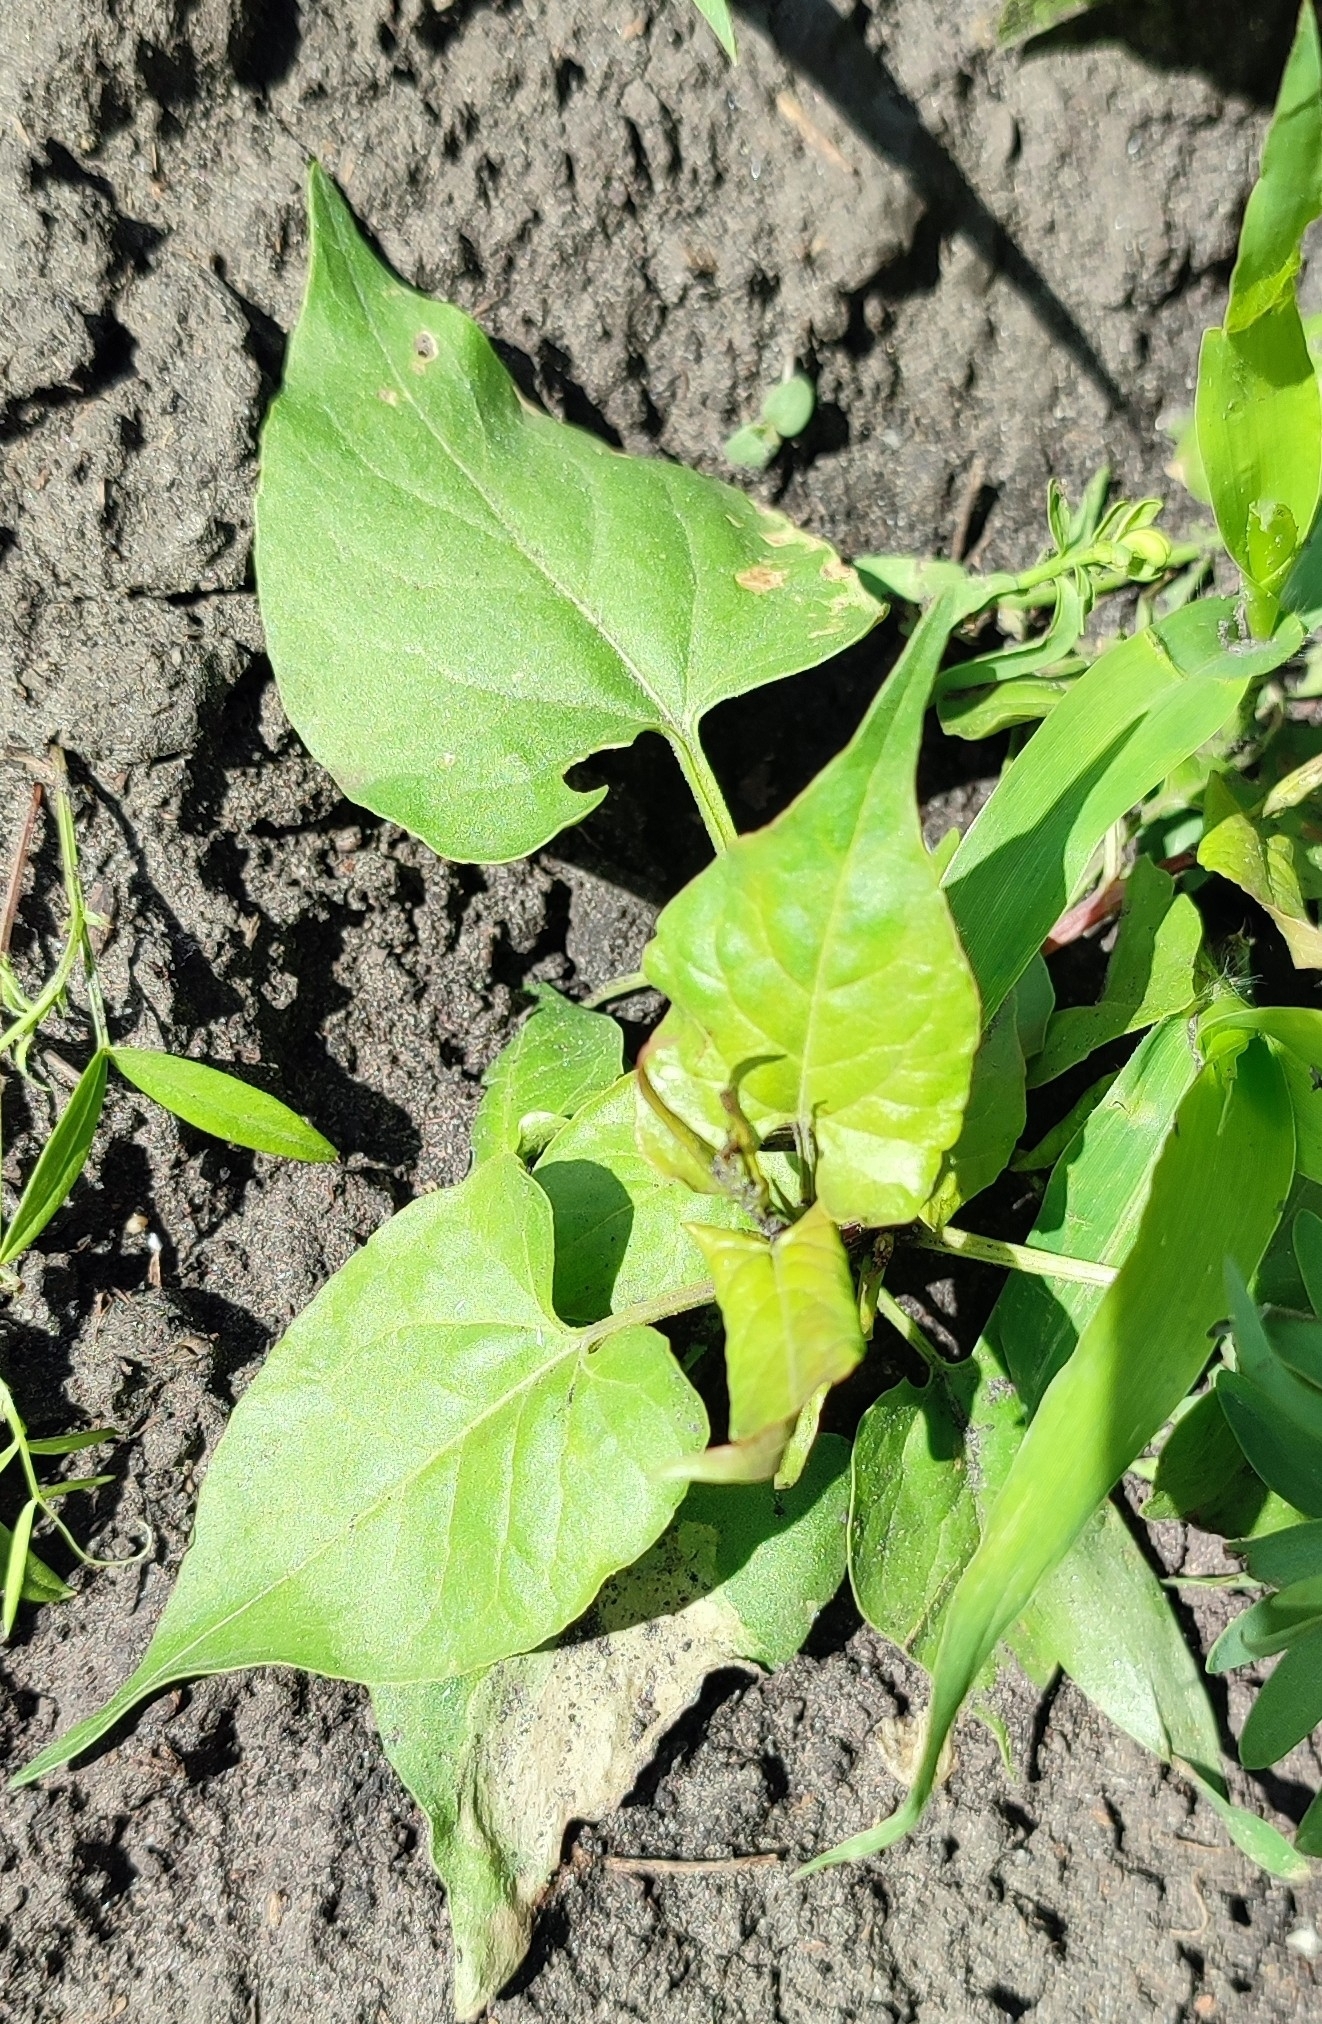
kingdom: Plantae
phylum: Tracheophyta
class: Magnoliopsida
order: Caryophyllales
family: Polygonaceae
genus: Fallopia
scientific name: Fallopia convolvulus
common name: Black bindweed
